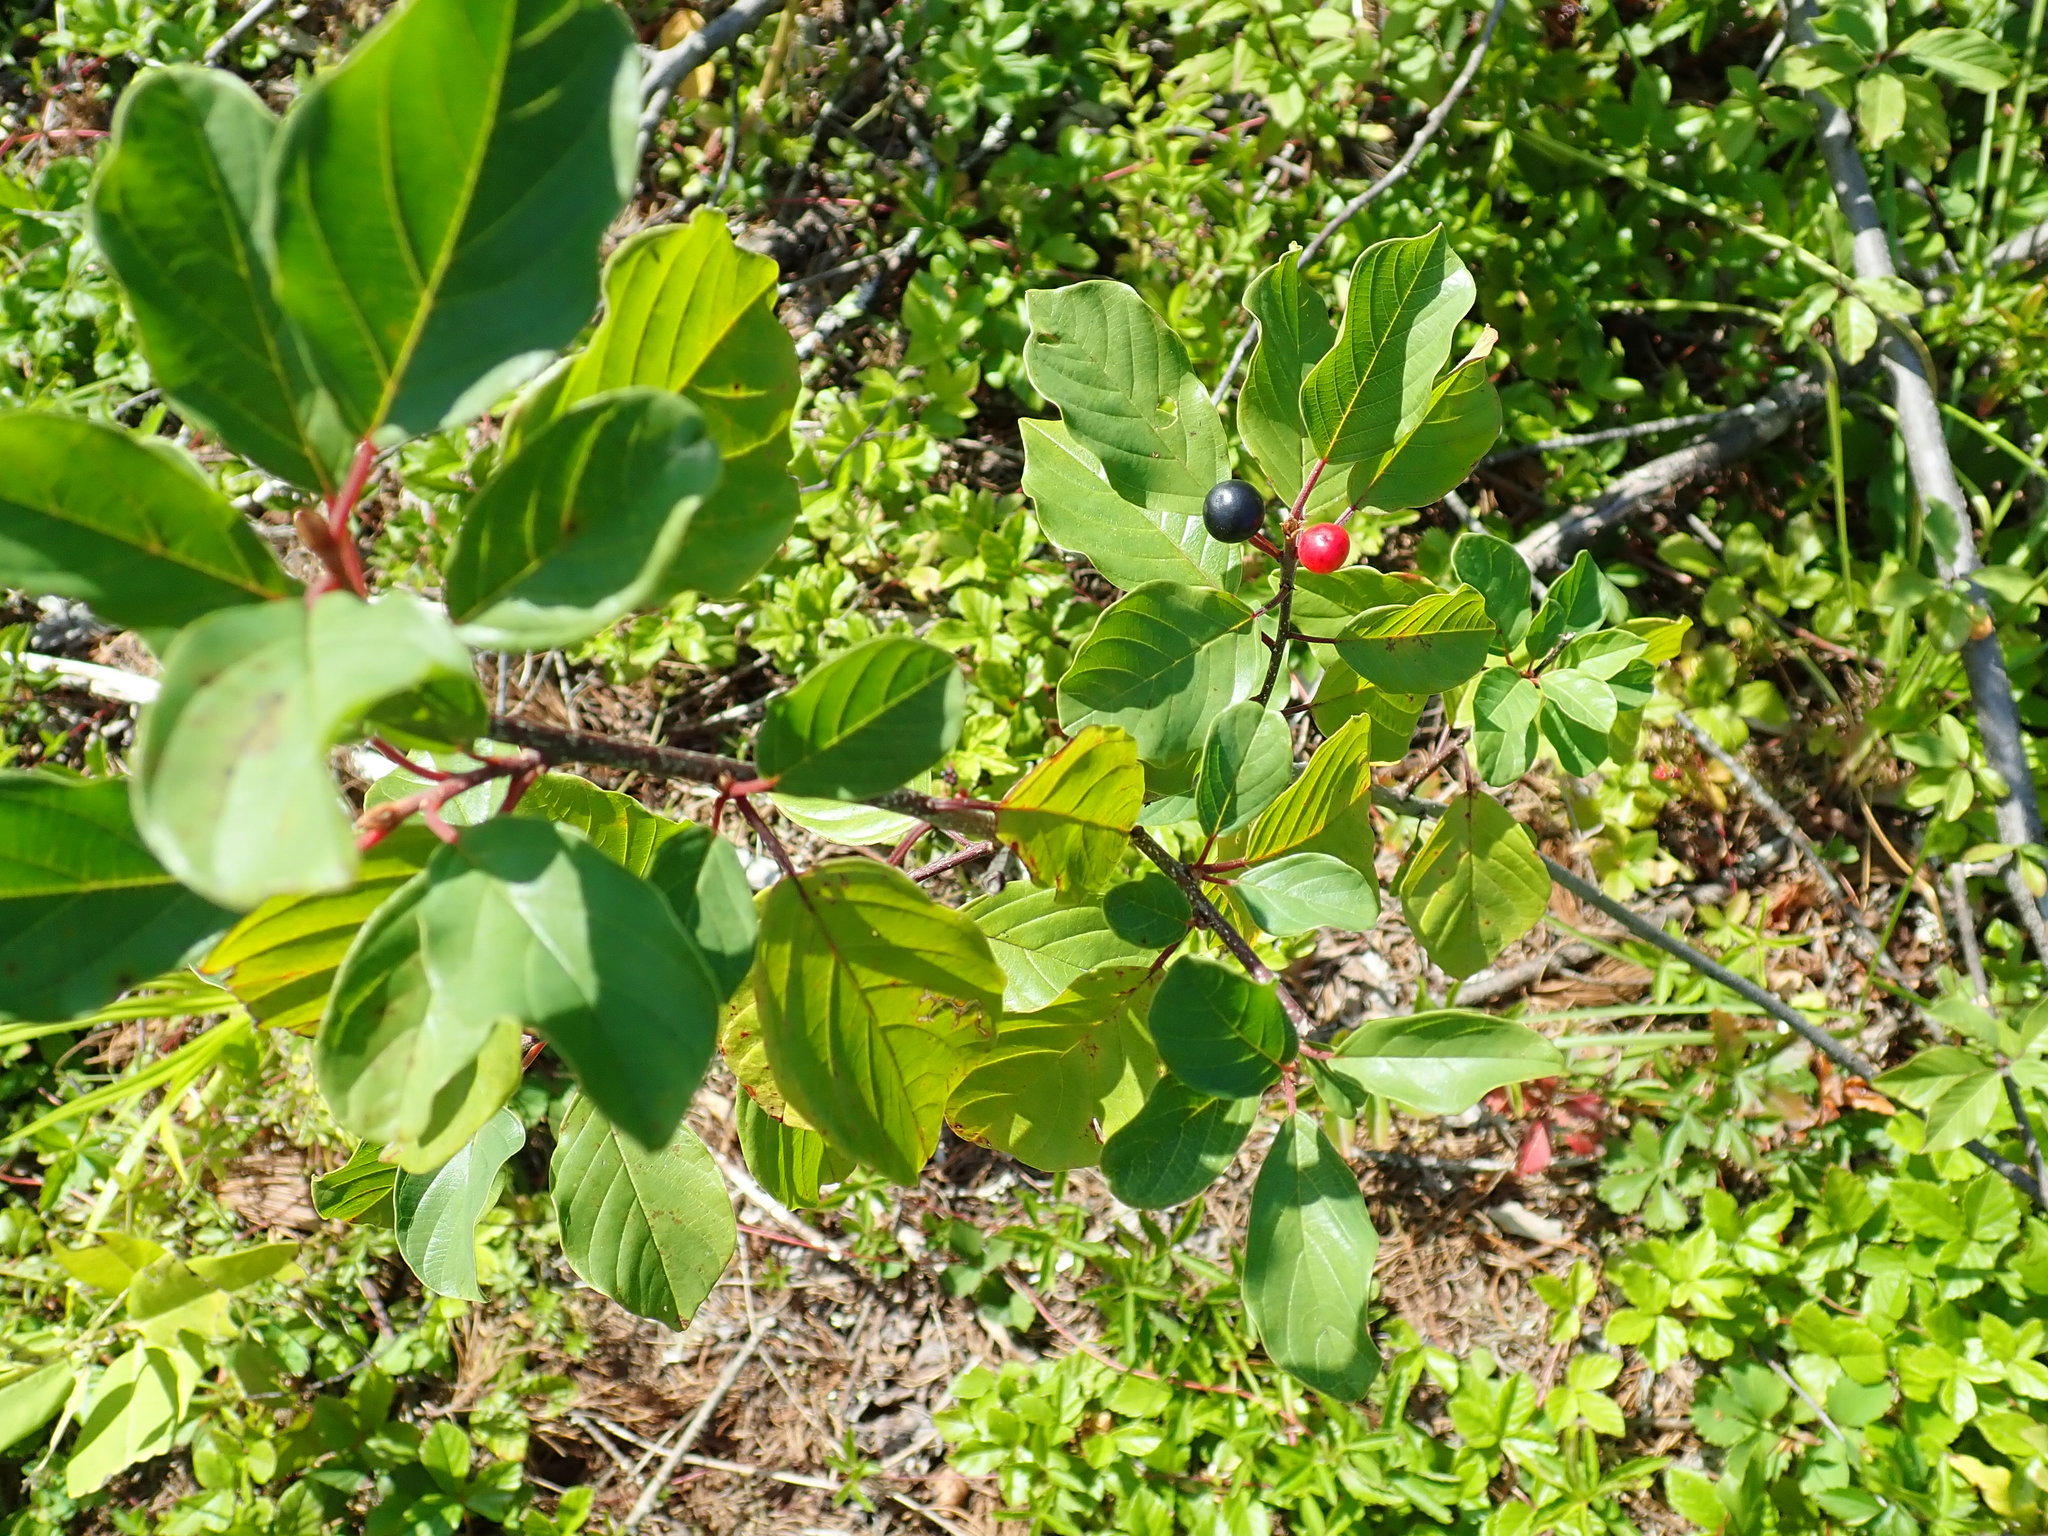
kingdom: Plantae
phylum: Tracheophyta
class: Magnoliopsida
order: Rosales
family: Rhamnaceae
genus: Frangula
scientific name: Frangula alnus
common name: Alder buckthorn
